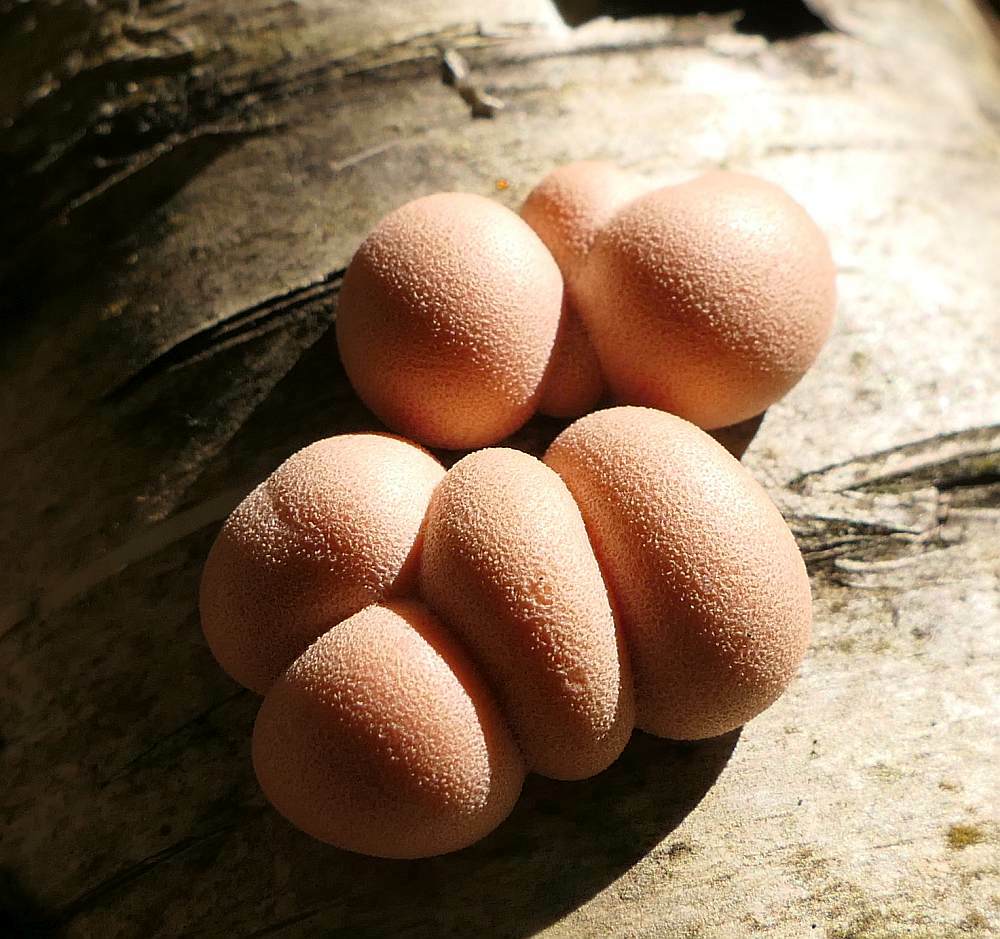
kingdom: Protozoa
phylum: Mycetozoa
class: Myxomycetes
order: Cribrariales
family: Tubiferaceae
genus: Lycogala
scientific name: Lycogala epidendrum
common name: Wolf's milk
